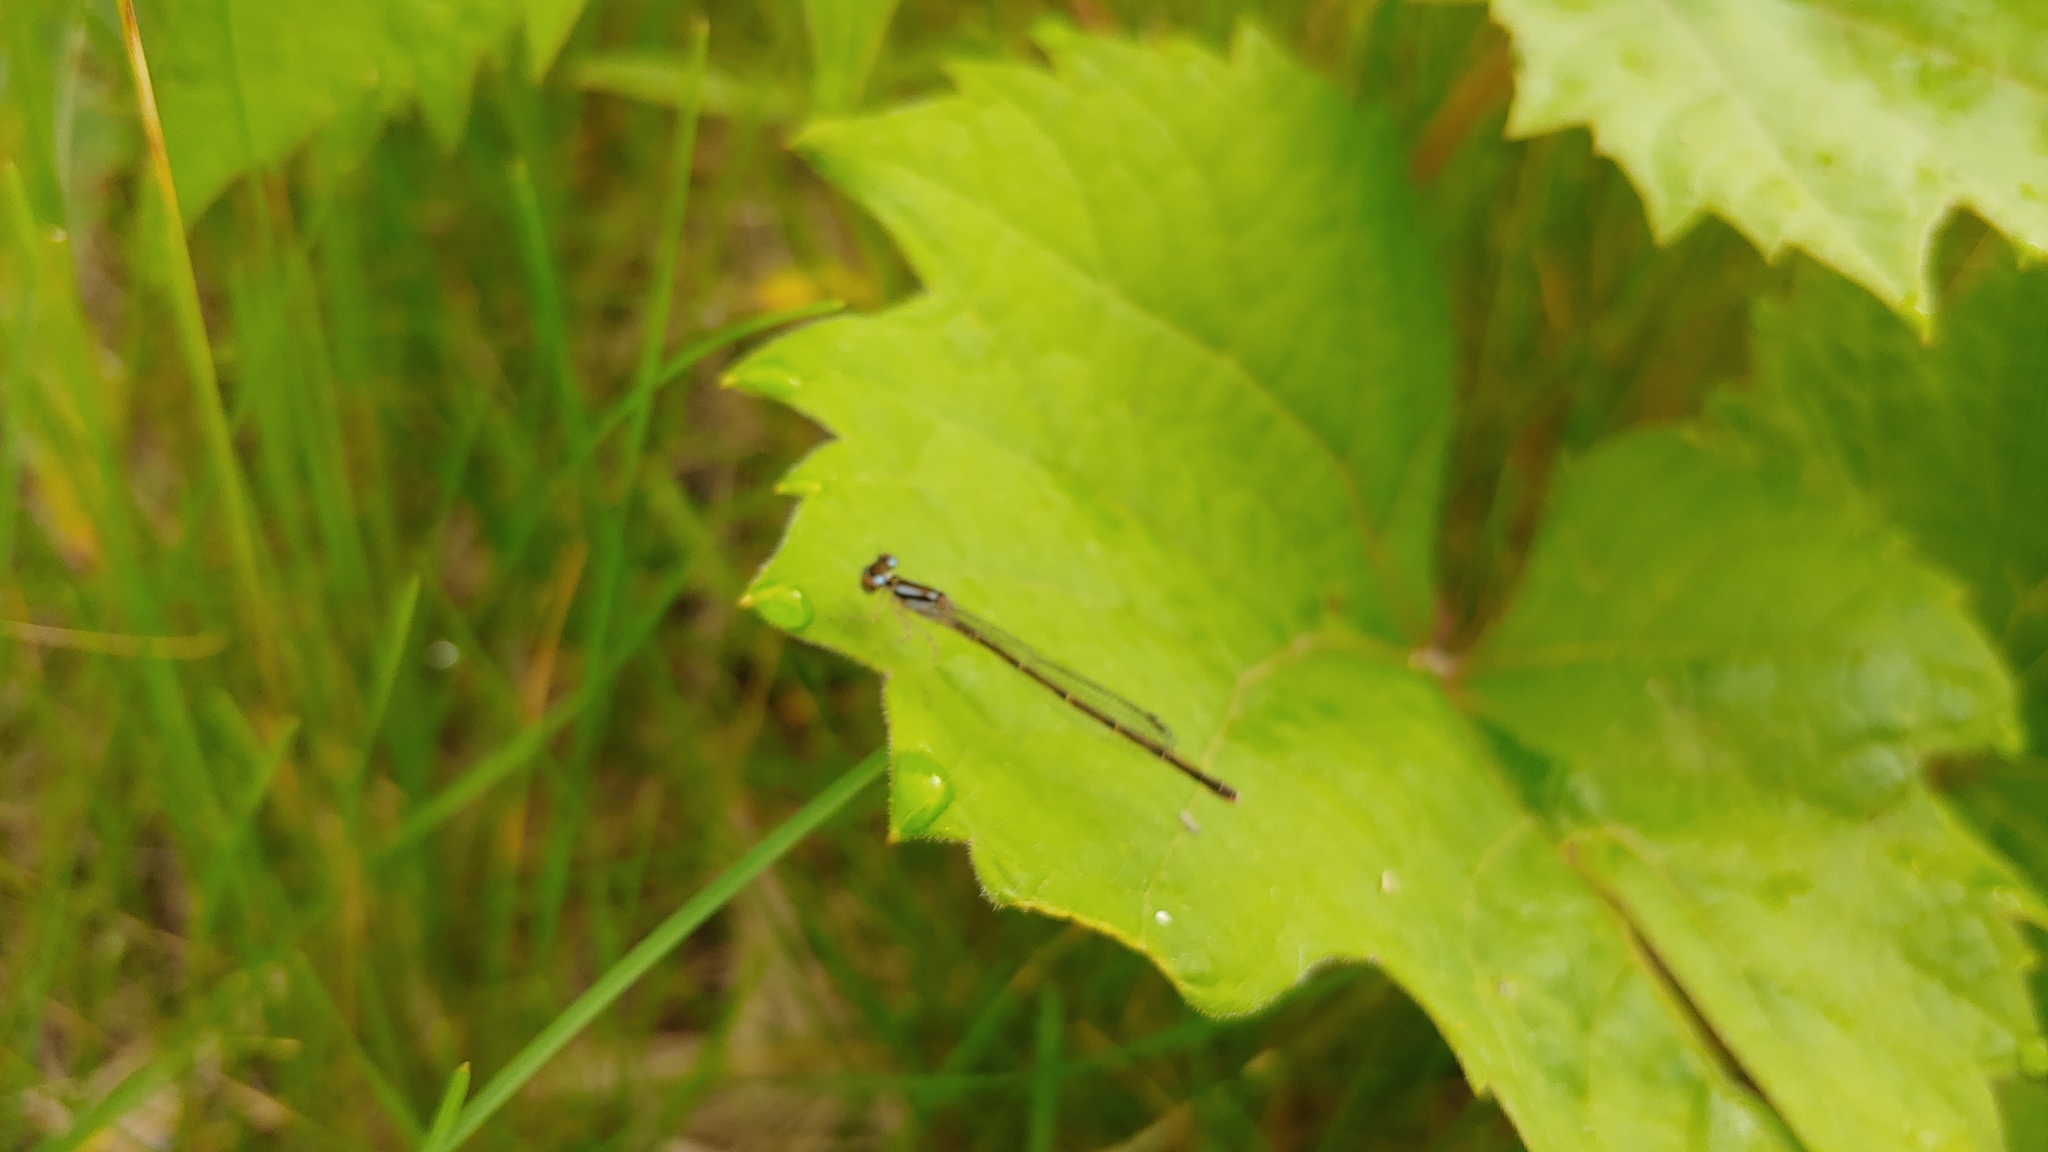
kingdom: Animalia
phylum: Arthropoda
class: Insecta
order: Odonata
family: Coenagrionidae
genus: Ischnura
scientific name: Ischnura posita
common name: Fragile forktail
